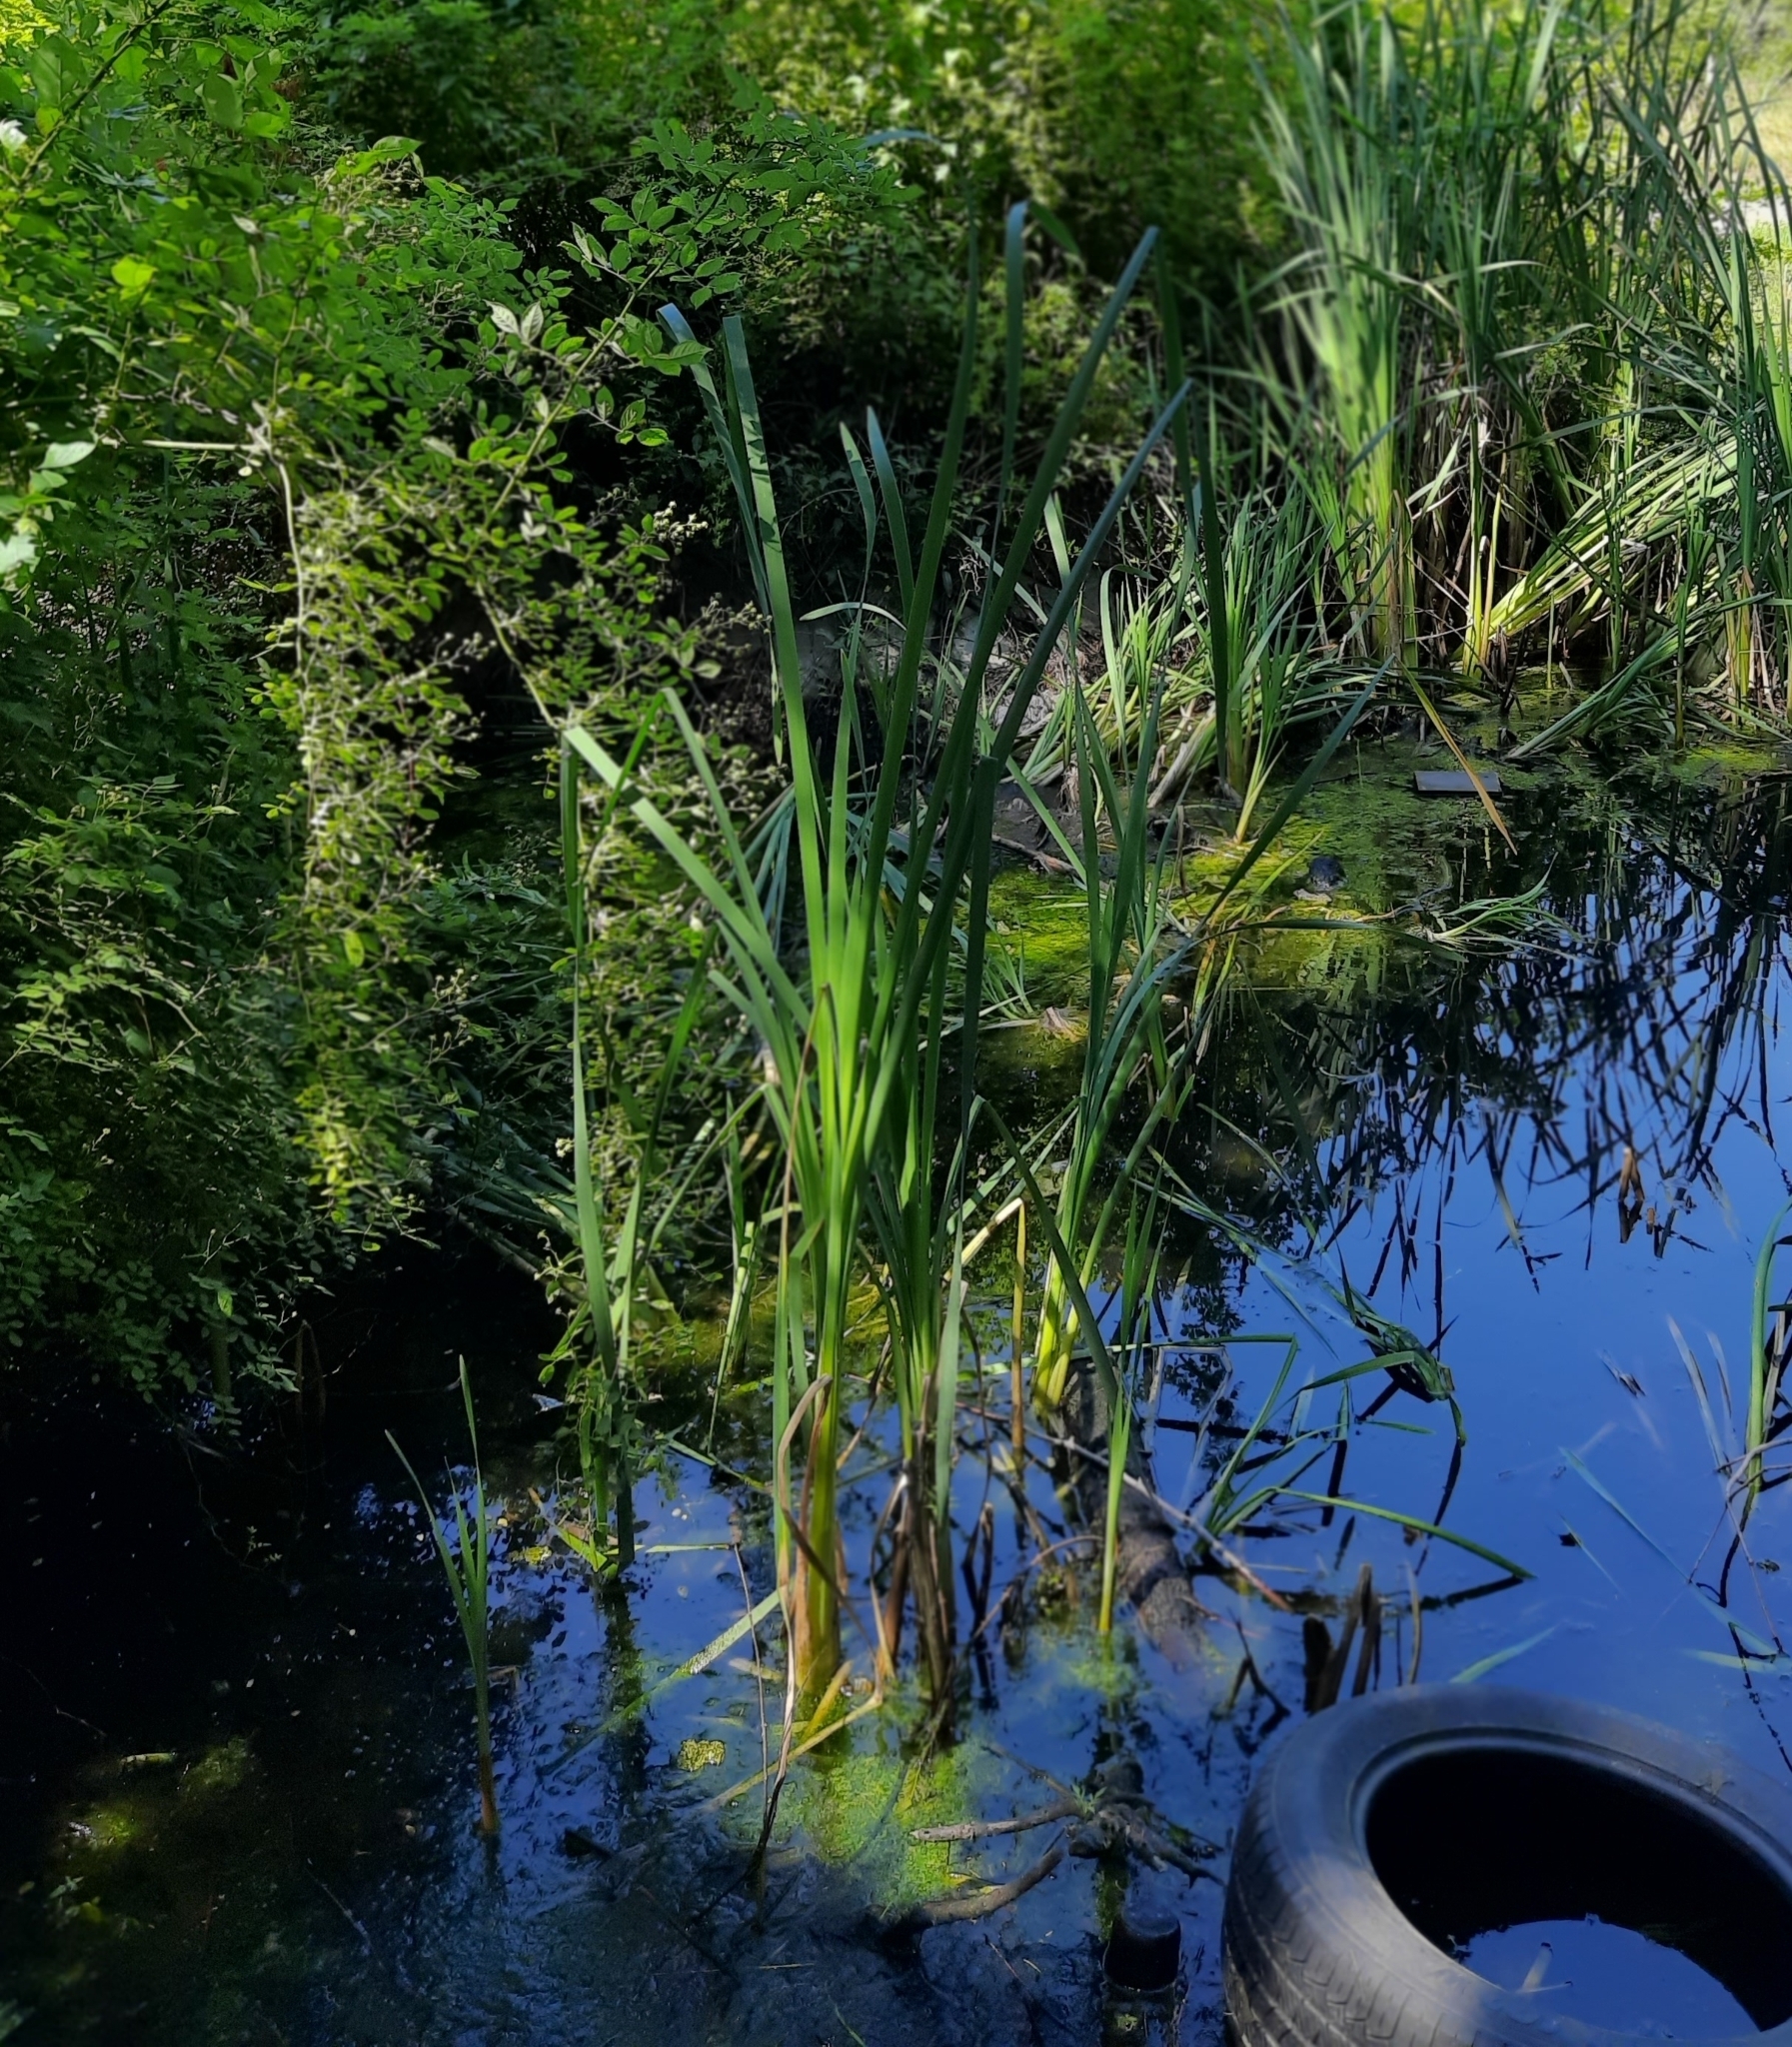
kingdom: Plantae
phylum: Tracheophyta
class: Liliopsida
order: Poales
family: Typhaceae
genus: Typha
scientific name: Typha latifolia
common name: Broadleaf cattail
